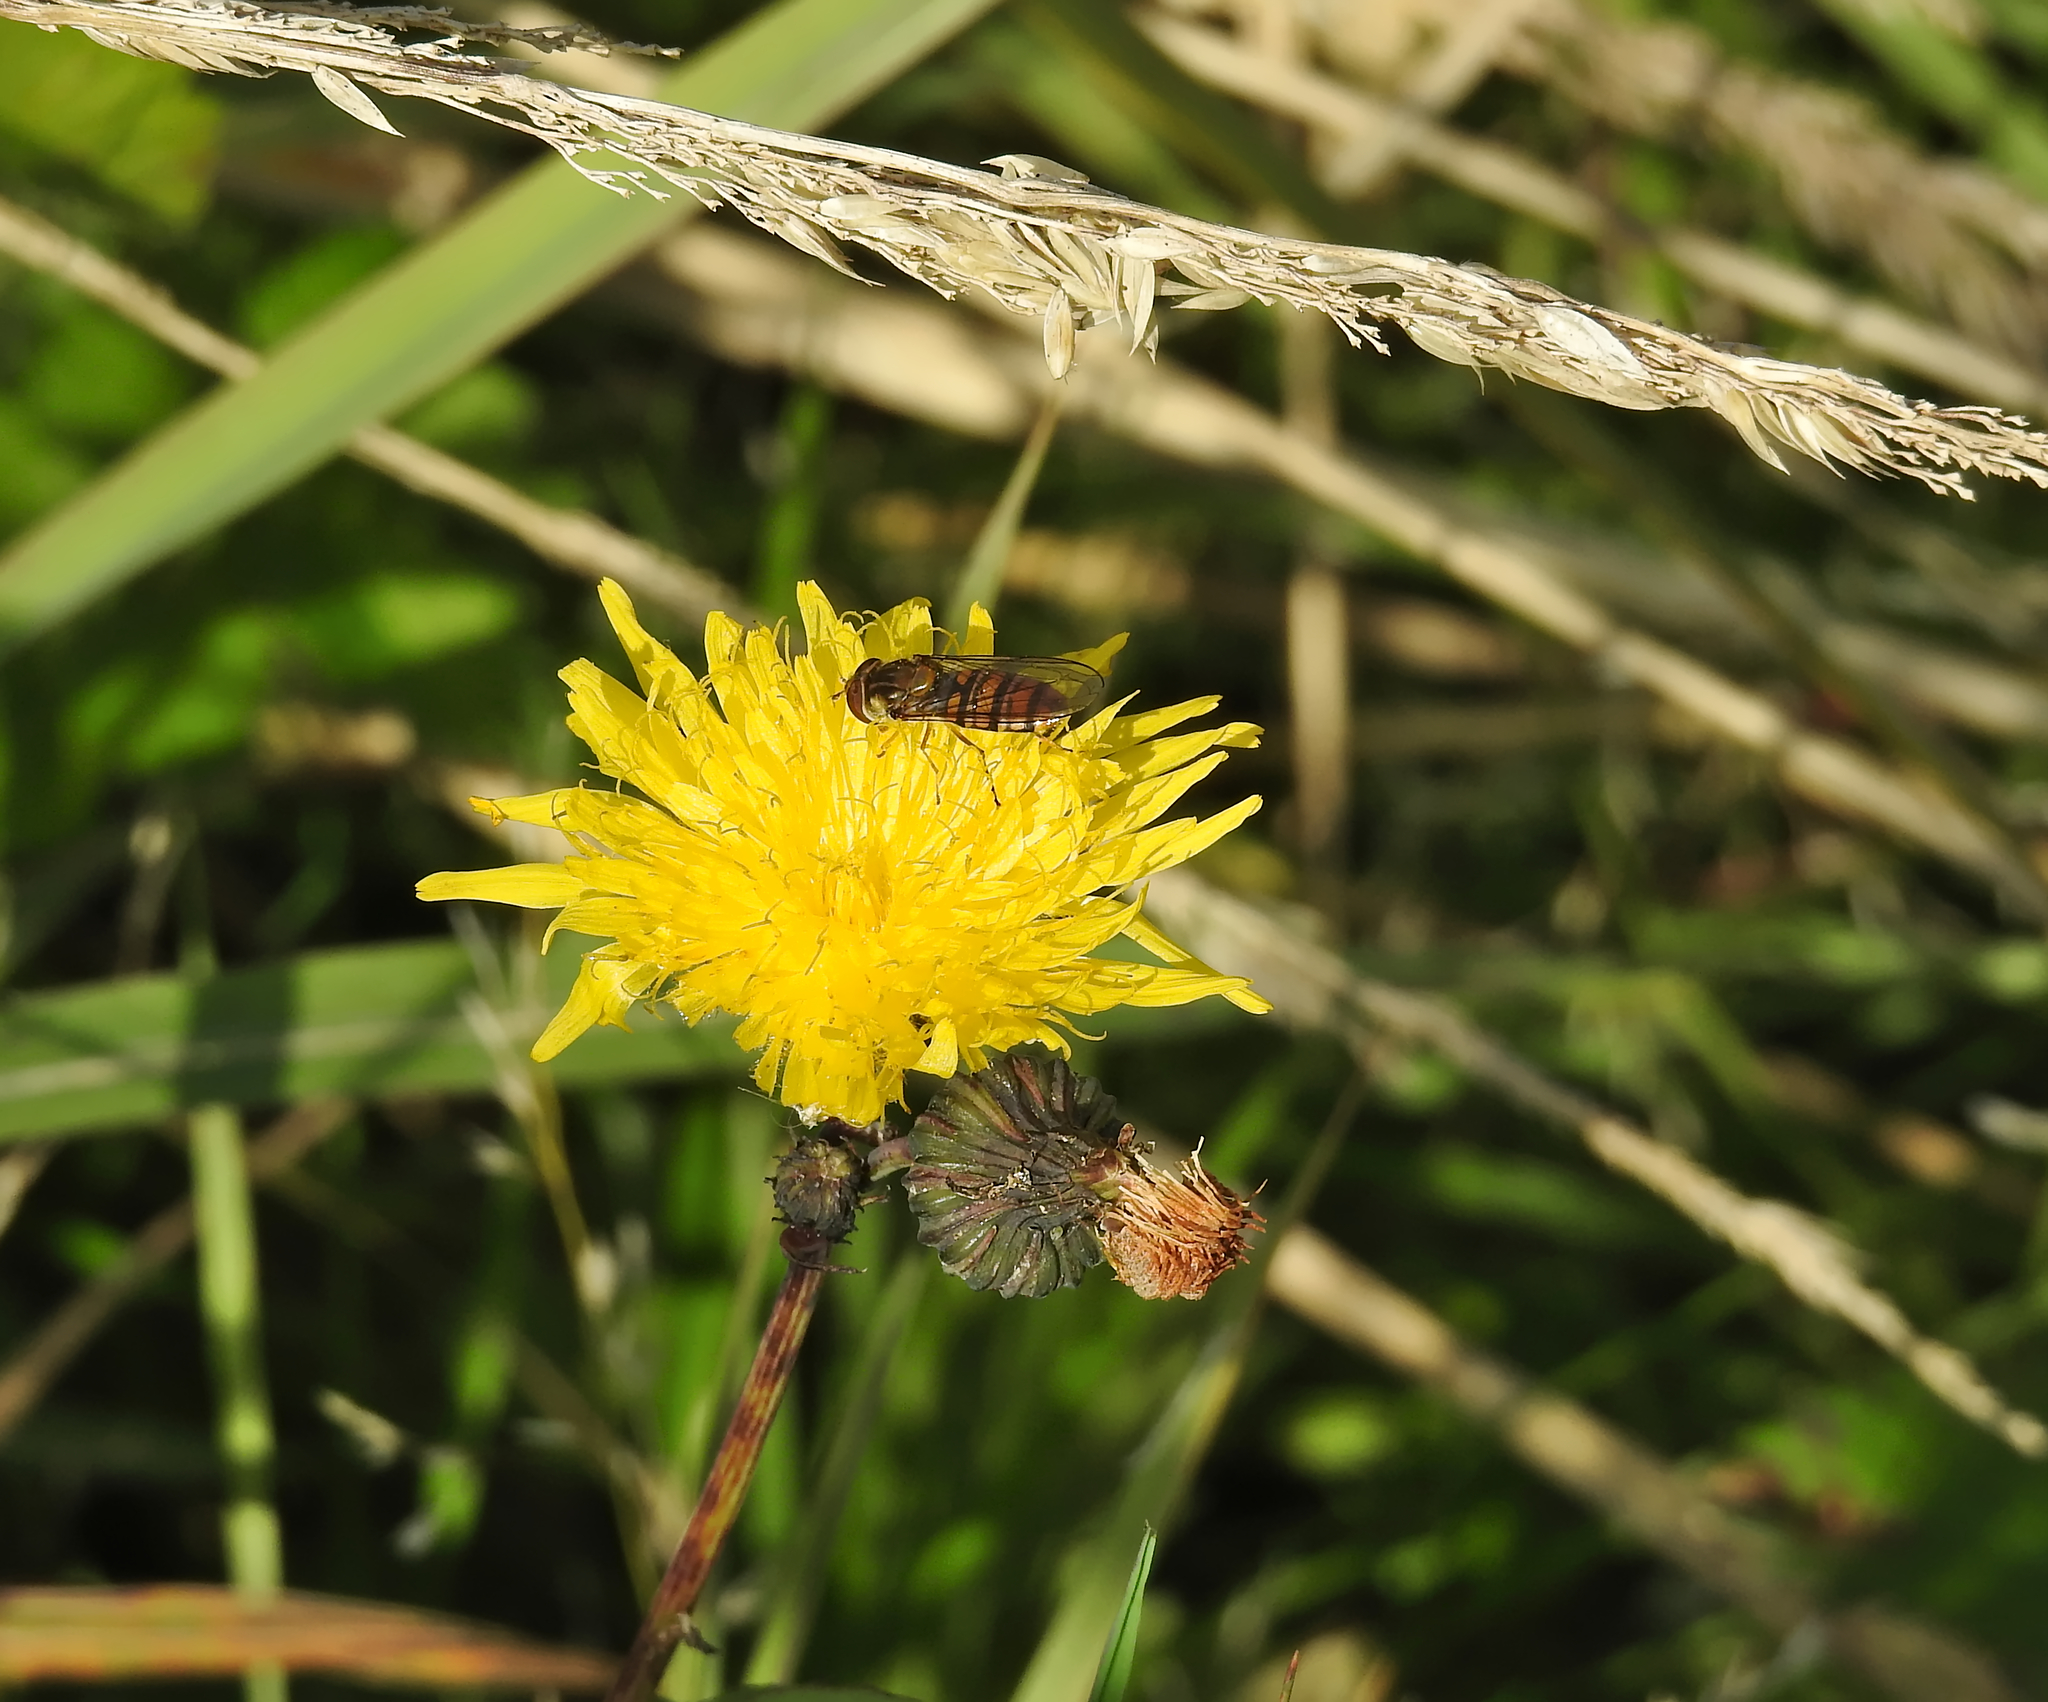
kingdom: Animalia
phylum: Arthropoda
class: Insecta
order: Diptera
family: Syrphidae
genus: Episyrphus
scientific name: Episyrphus balteatus
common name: Marmalade hoverfly
